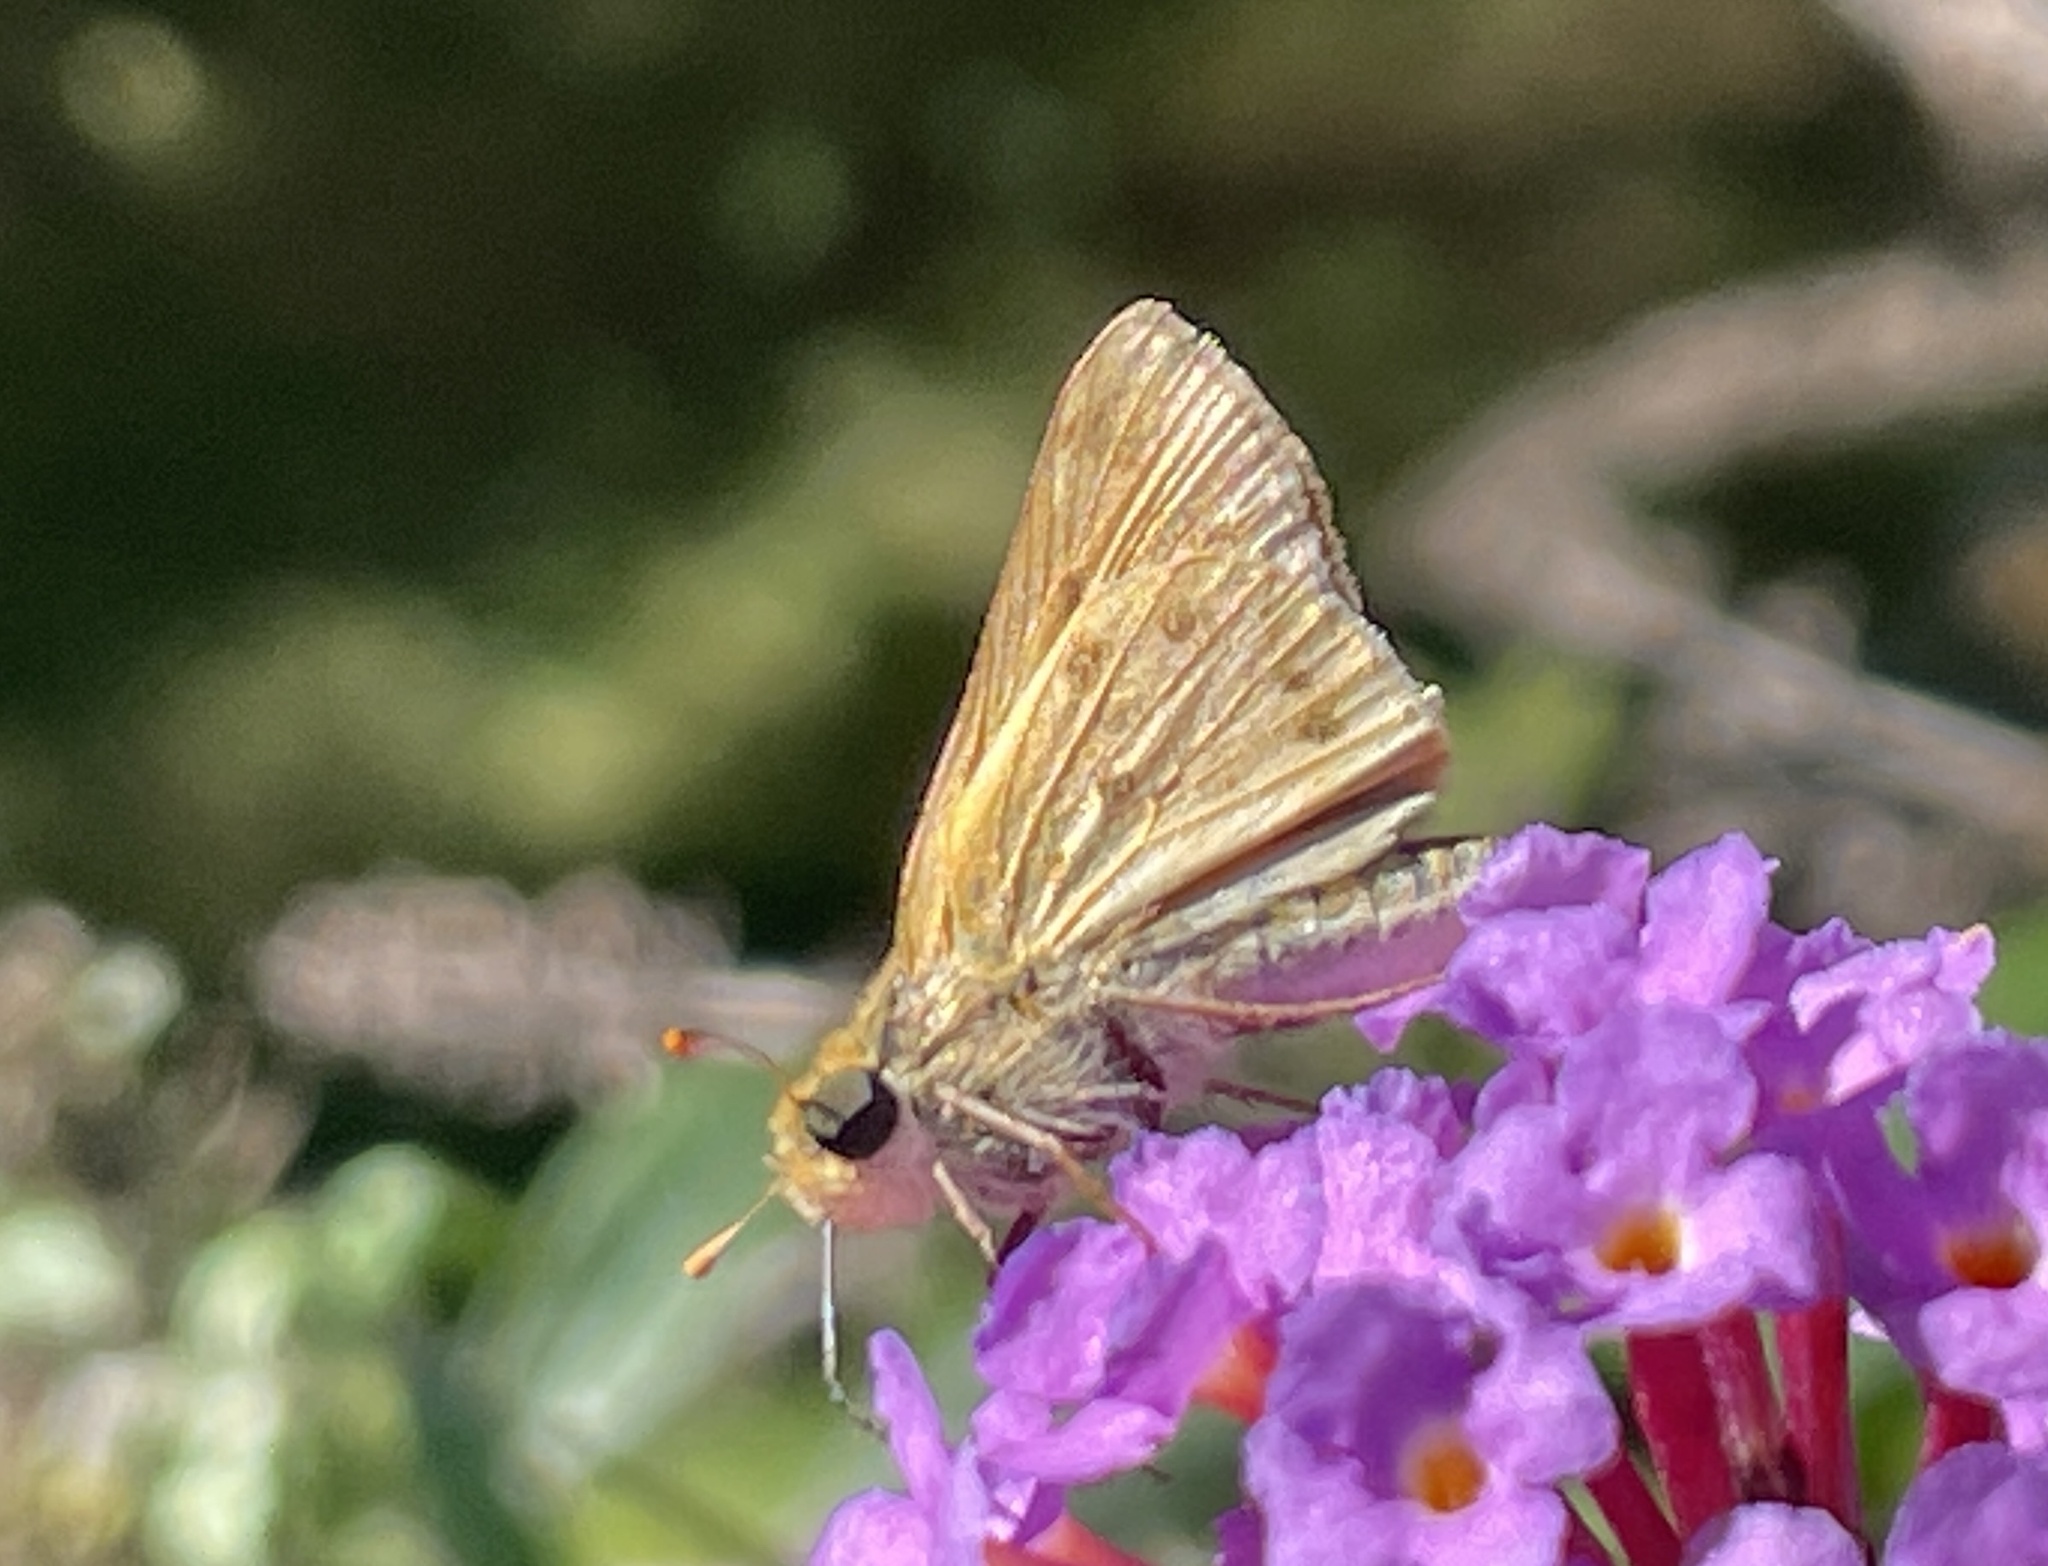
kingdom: Animalia
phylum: Arthropoda
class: Insecta
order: Lepidoptera
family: Hesperiidae
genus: Hylephila
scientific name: Hylephila phyleus
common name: Fiery skipper
